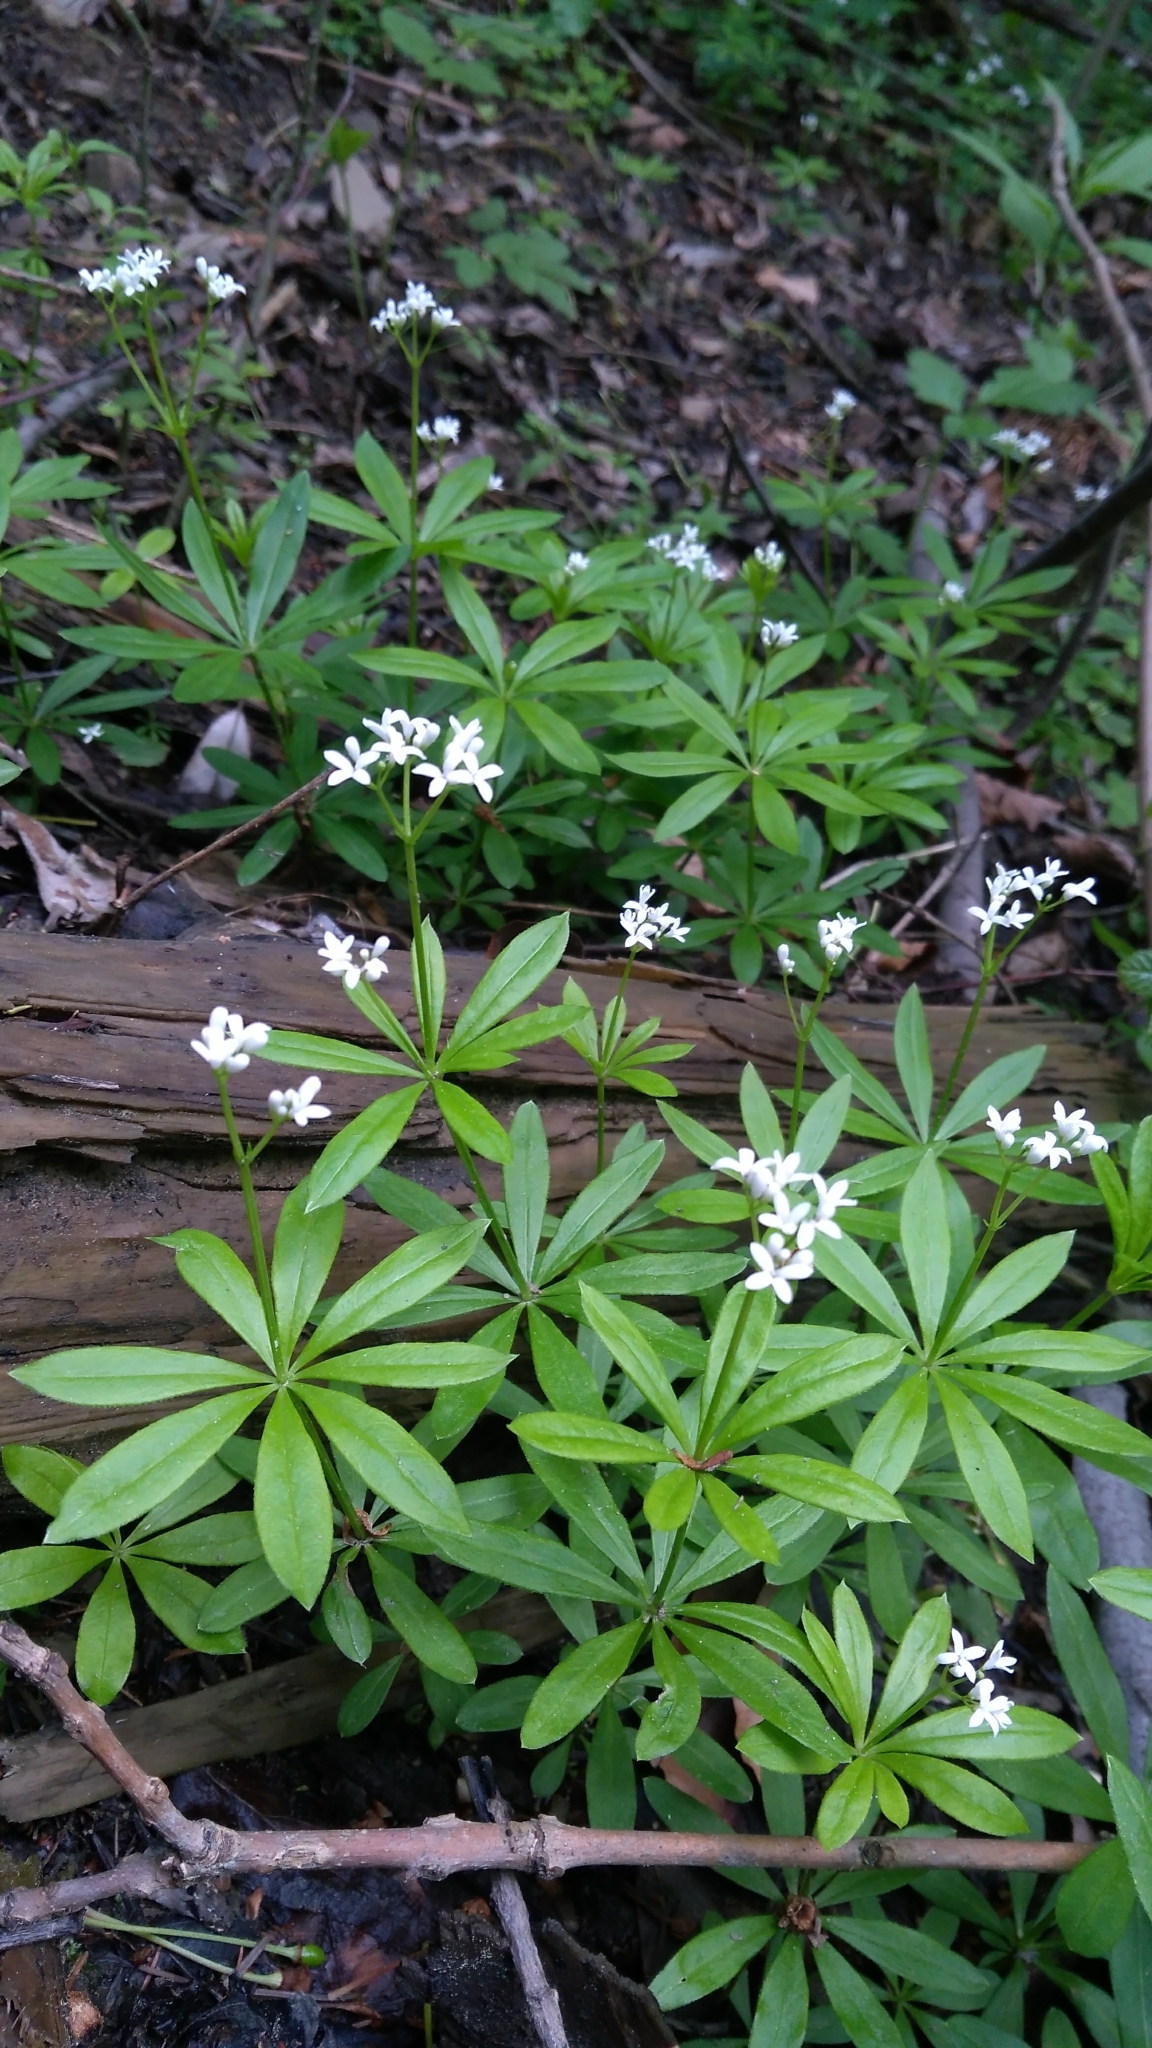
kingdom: Plantae
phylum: Tracheophyta
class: Magnoliopsida
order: Gentianales
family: Rubiaceae
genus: Galium
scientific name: Galium odoratum
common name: Sweet woodruff
